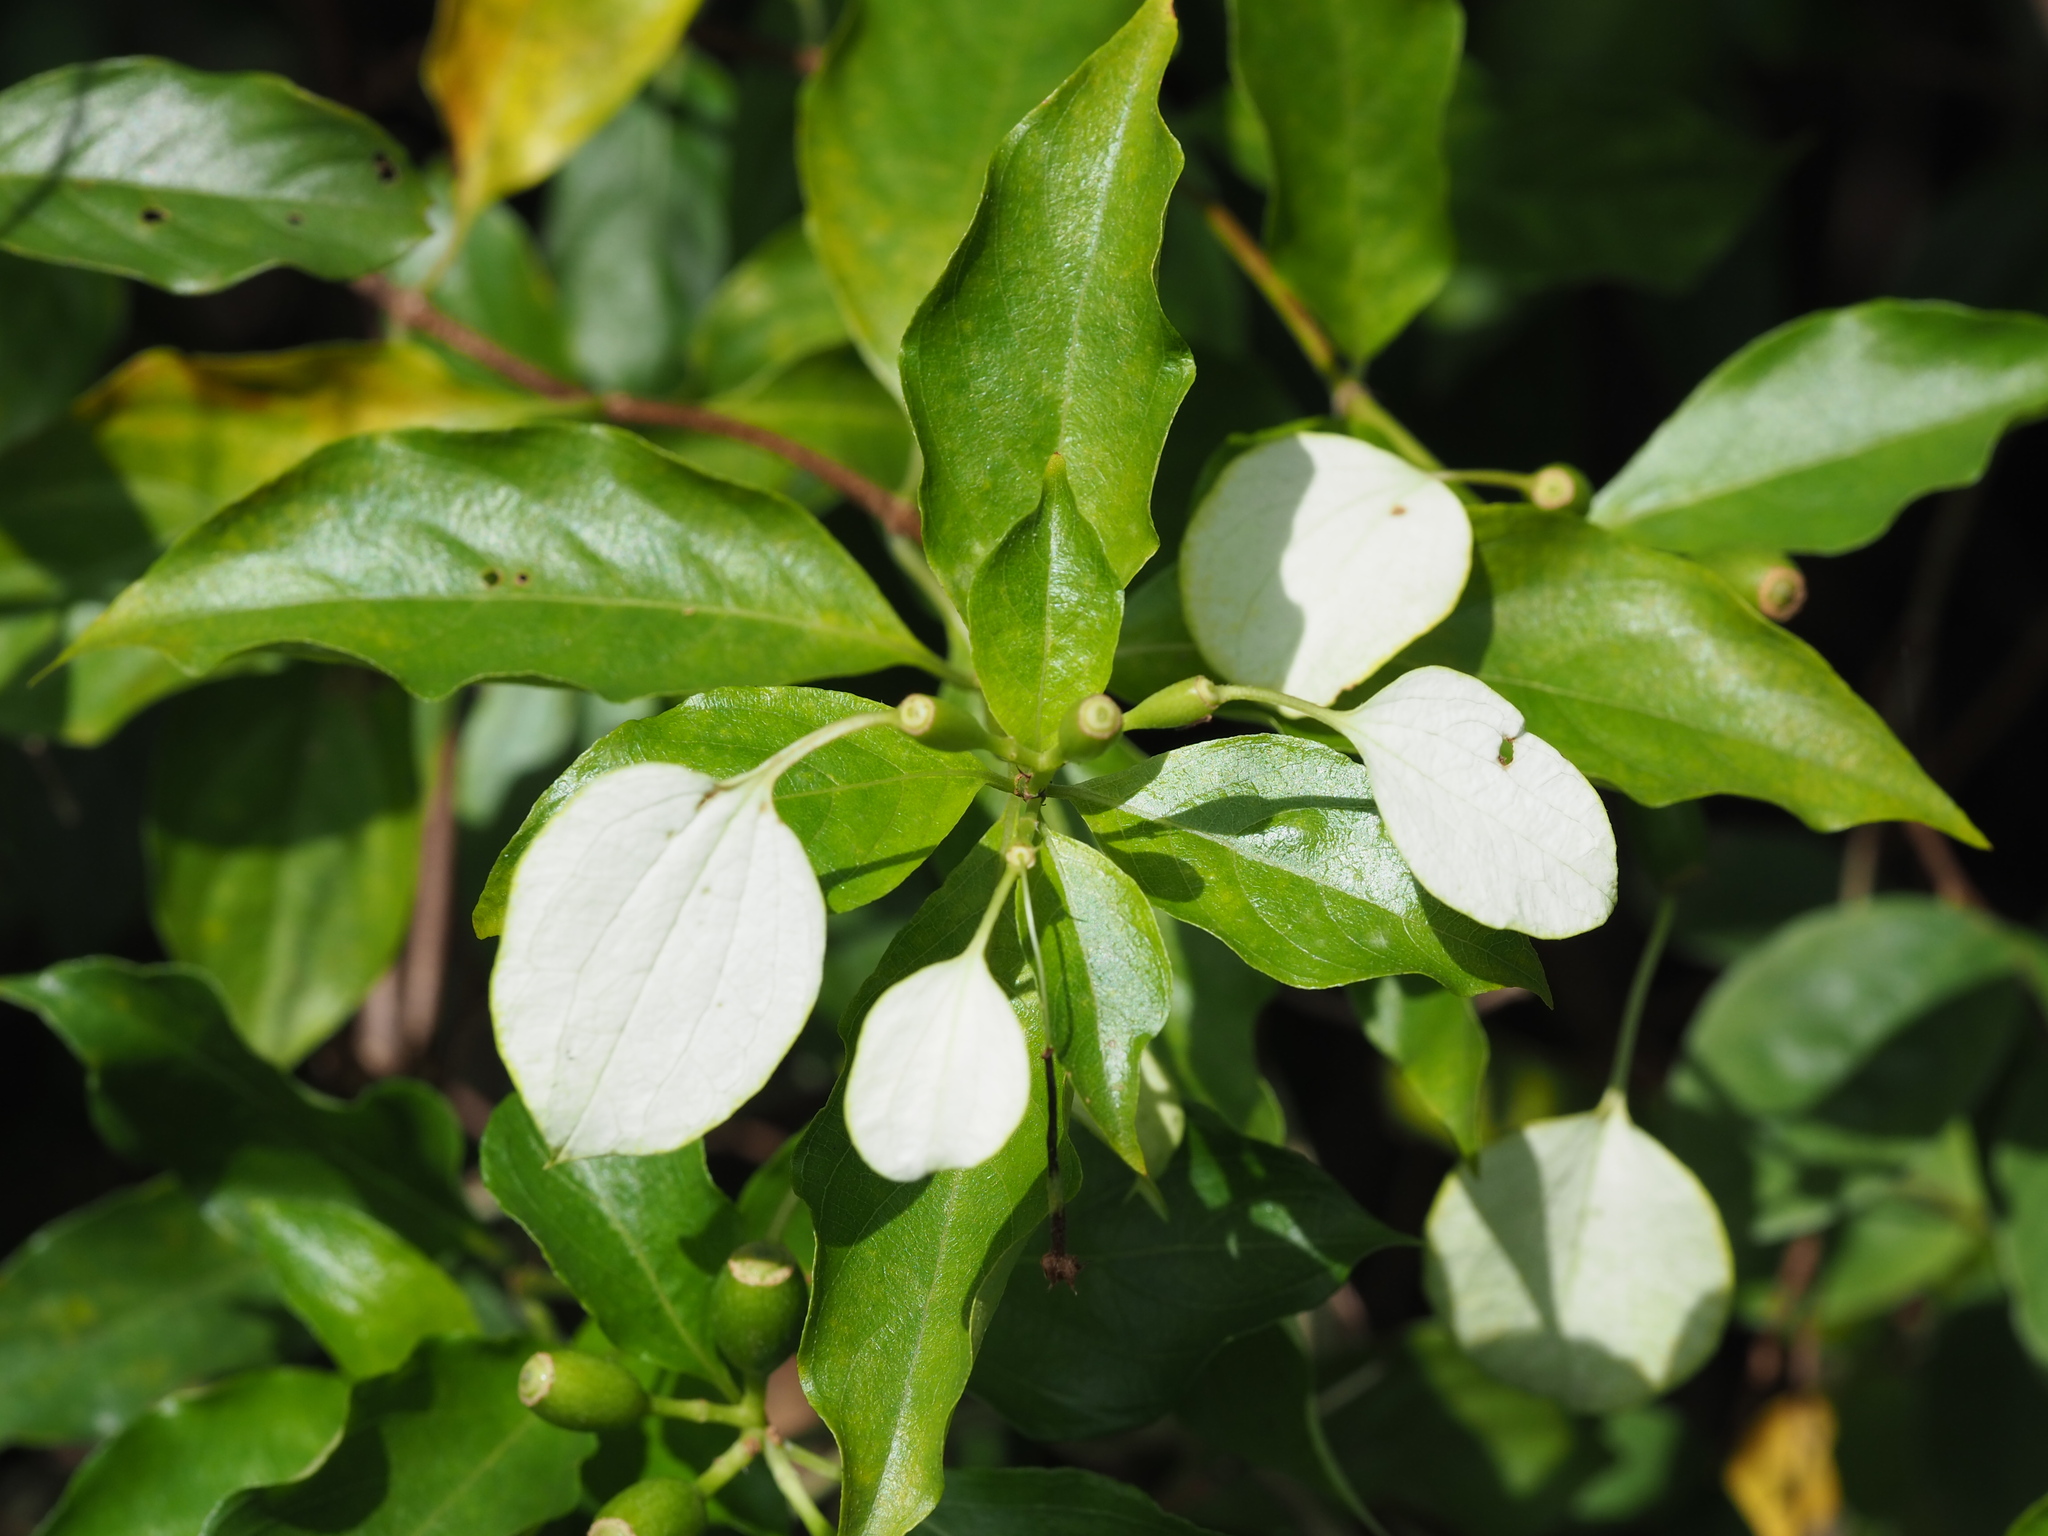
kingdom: Plantae
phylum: Tracheophyta
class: Magnoliopsida
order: Gentianales
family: Rubiaceae
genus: Mussaenda
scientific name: Mussaenda formosana
